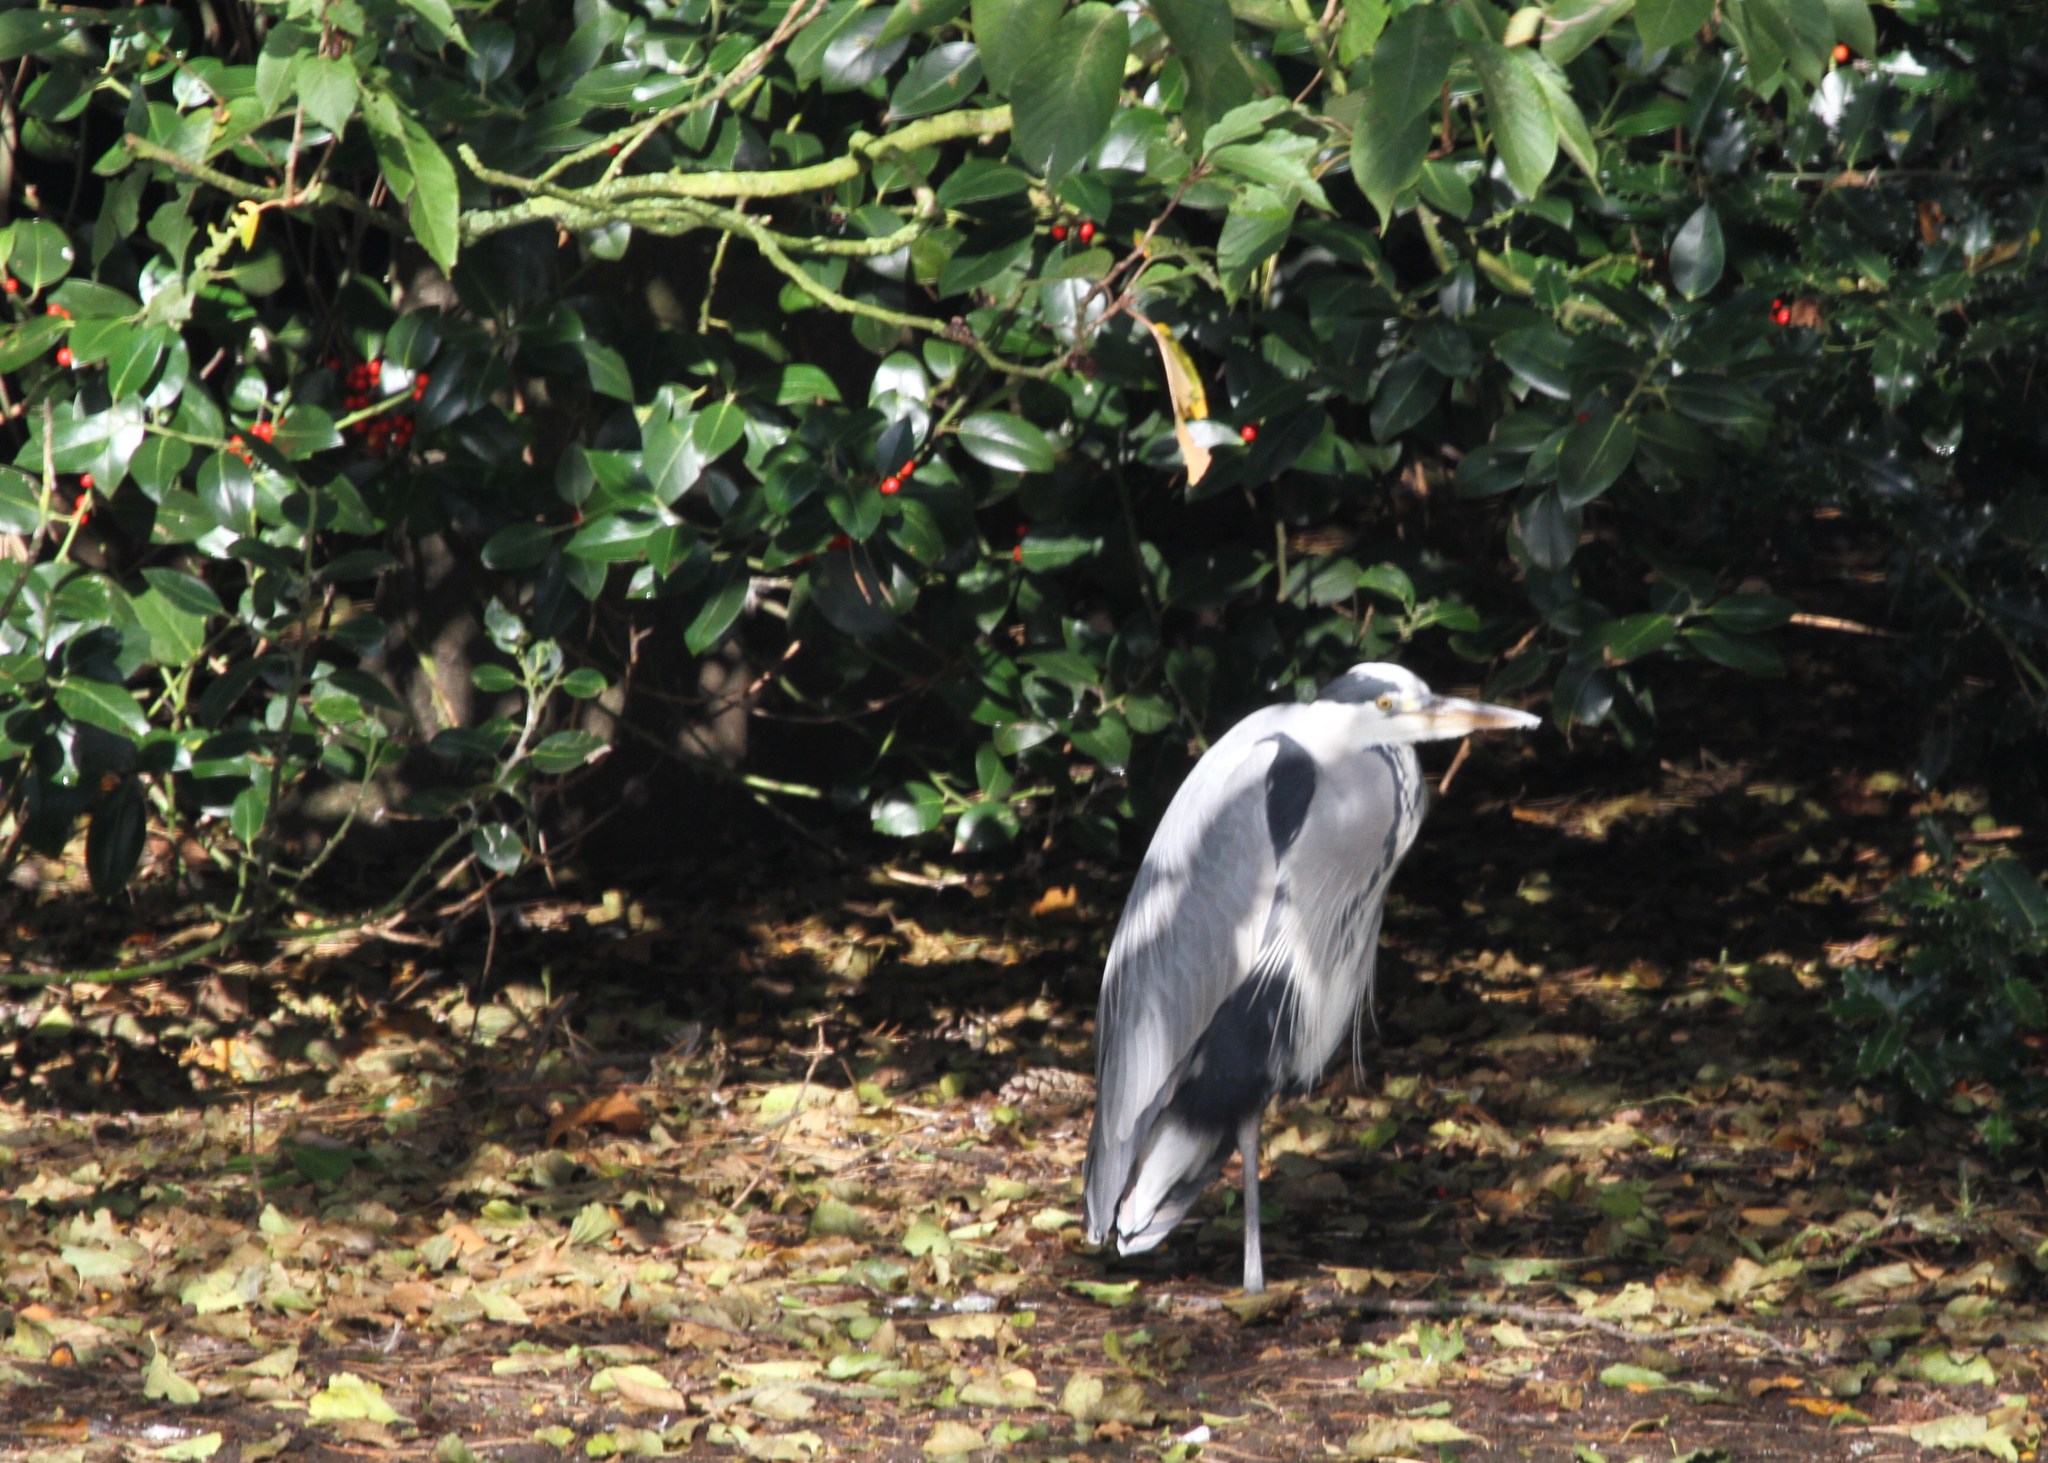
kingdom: Animalia
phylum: Chordata
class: Aves
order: Pelecaniformes
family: Ardeidae
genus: Ardea
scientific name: Ardea cinerea
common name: Grey heron
